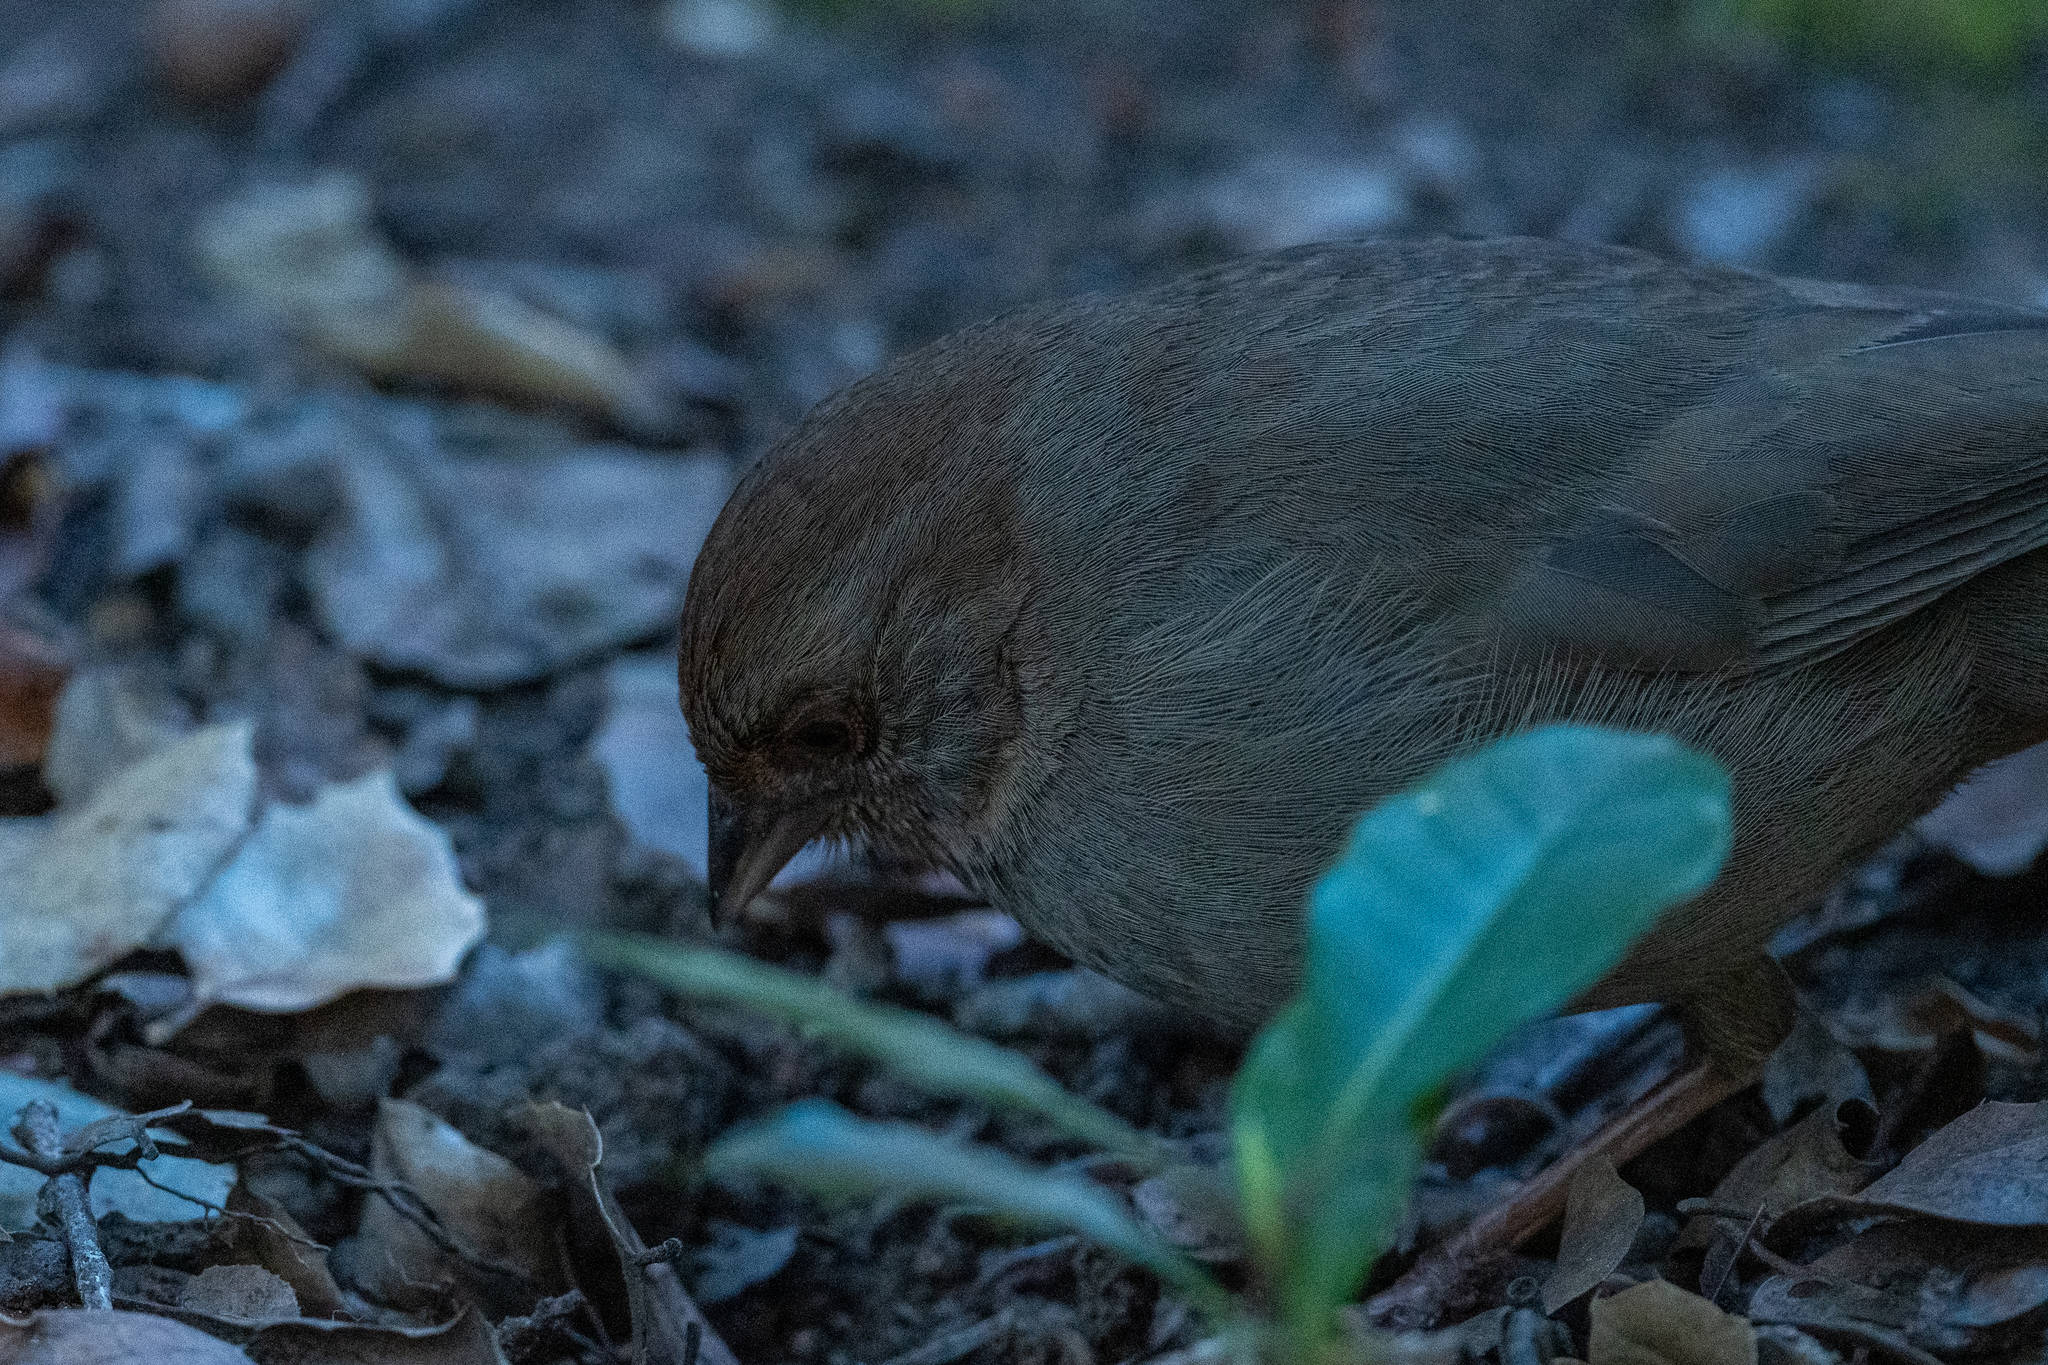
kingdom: Animalia
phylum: Chordata
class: Aves
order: Passeriformes
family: Passerellidae
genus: Melozone
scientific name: Melozone crissalis
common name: California towhee
